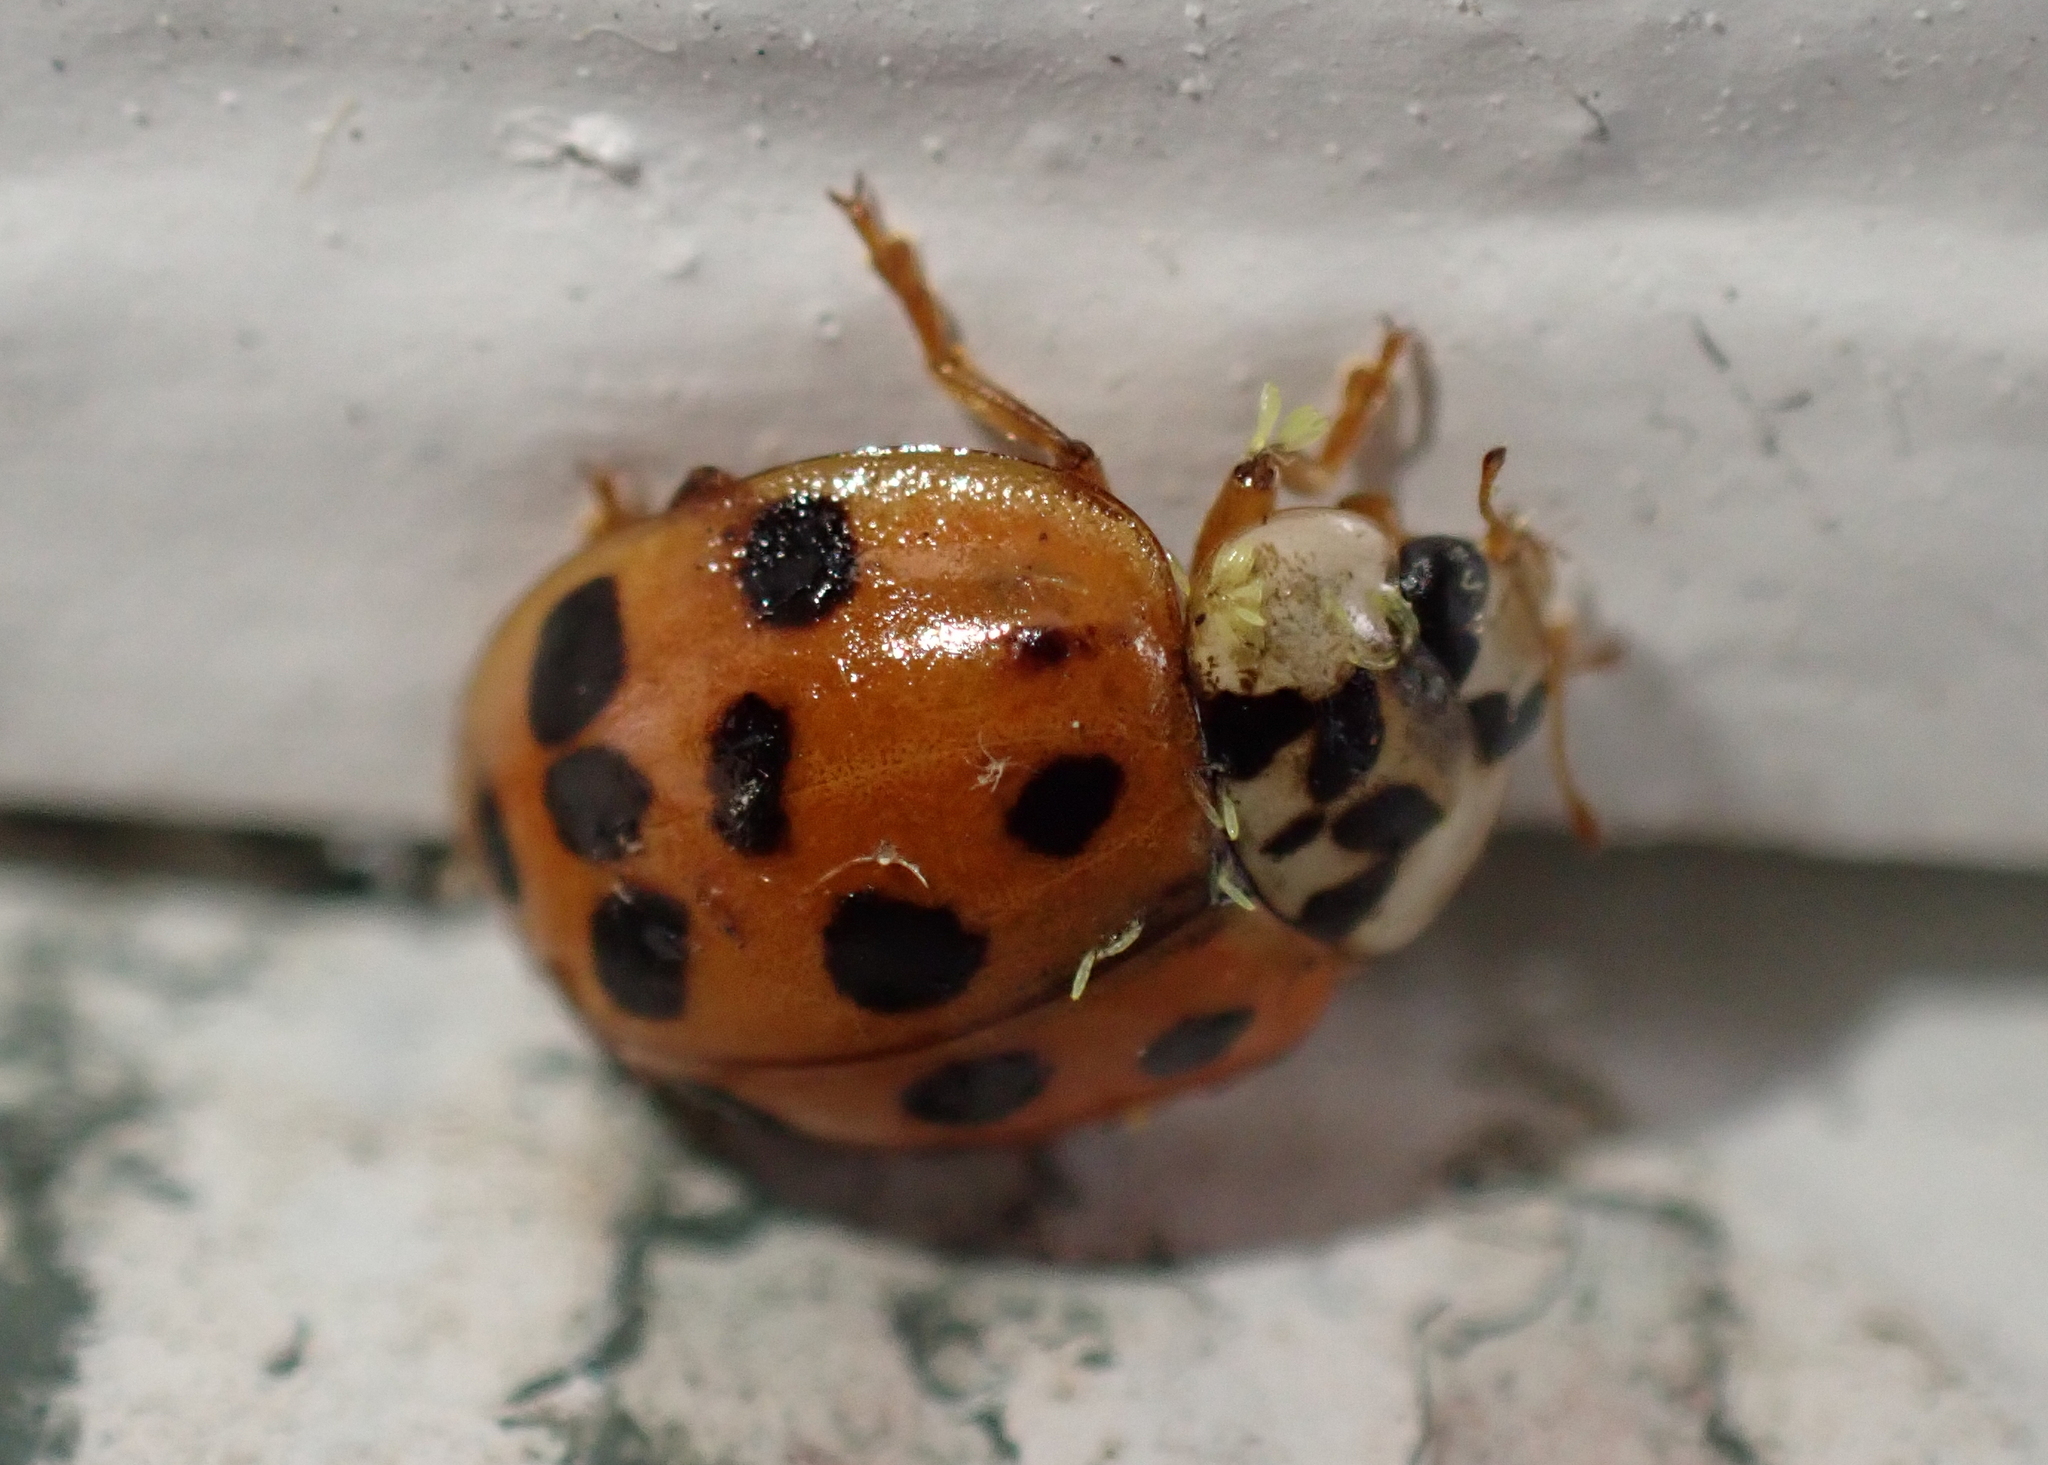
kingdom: Animalia
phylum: Arthropoda
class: Insecta
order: Coleoptera
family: Coccinellidae
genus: Harmonia
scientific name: Harmonia axyridis
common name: Harlequin ladybird
